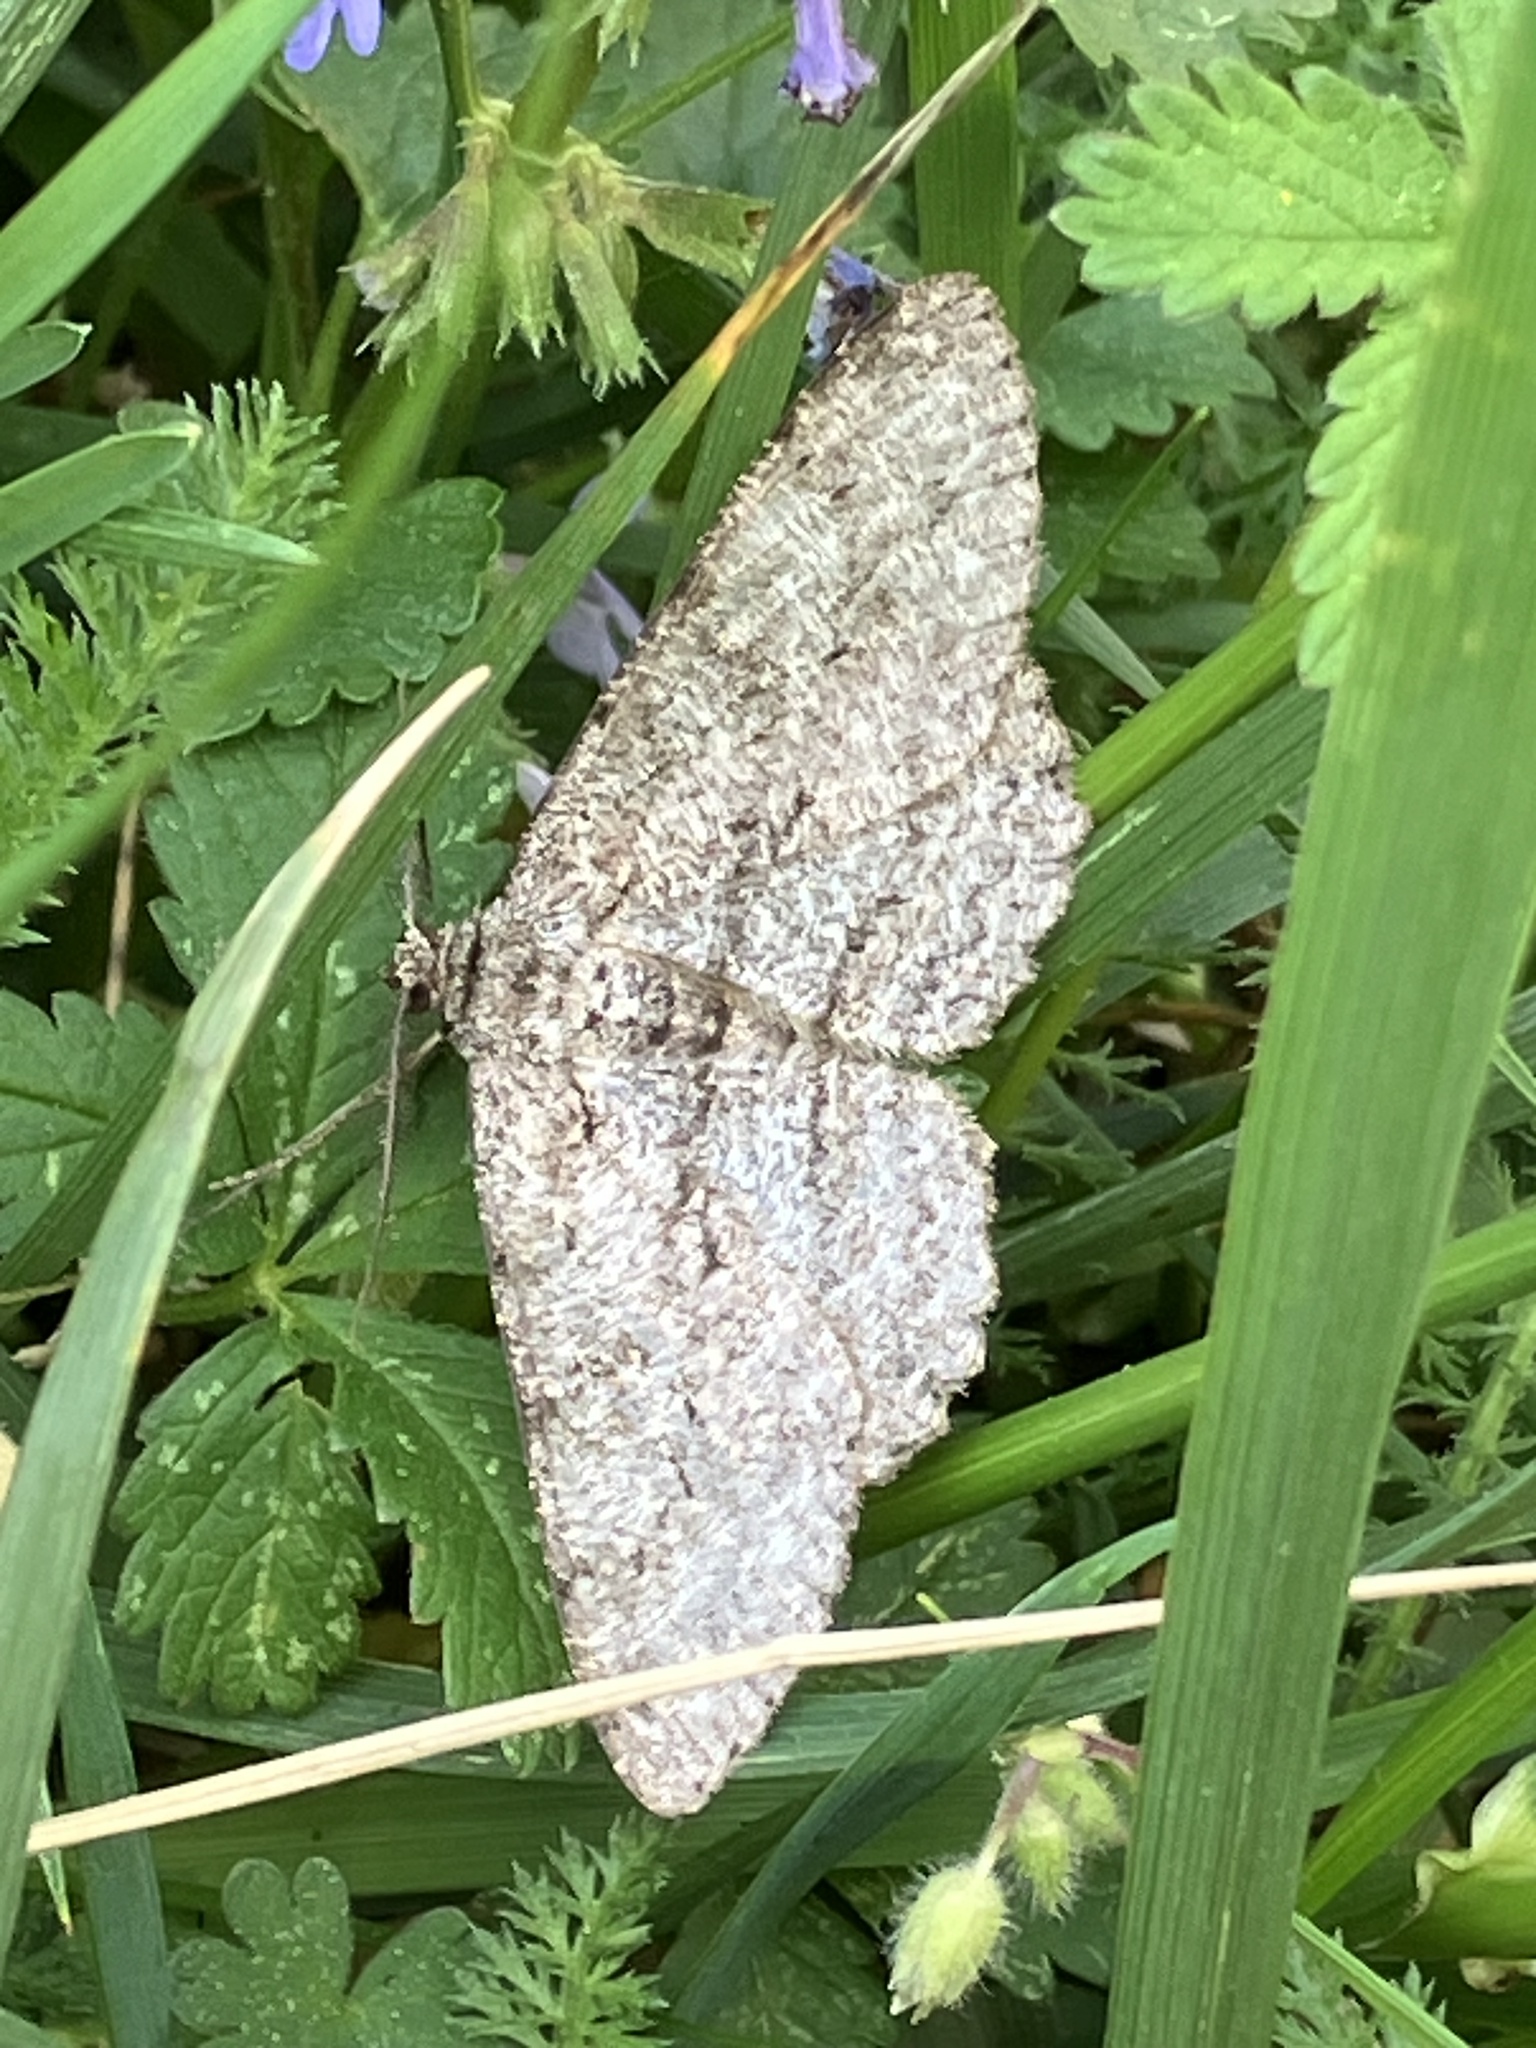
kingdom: Animalia
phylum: Arthropoda
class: Insecta
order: Lepidoptera
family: Geometridae
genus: Hypomecis
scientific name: Hypomecis punctinalis
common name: Pale oak beauty
